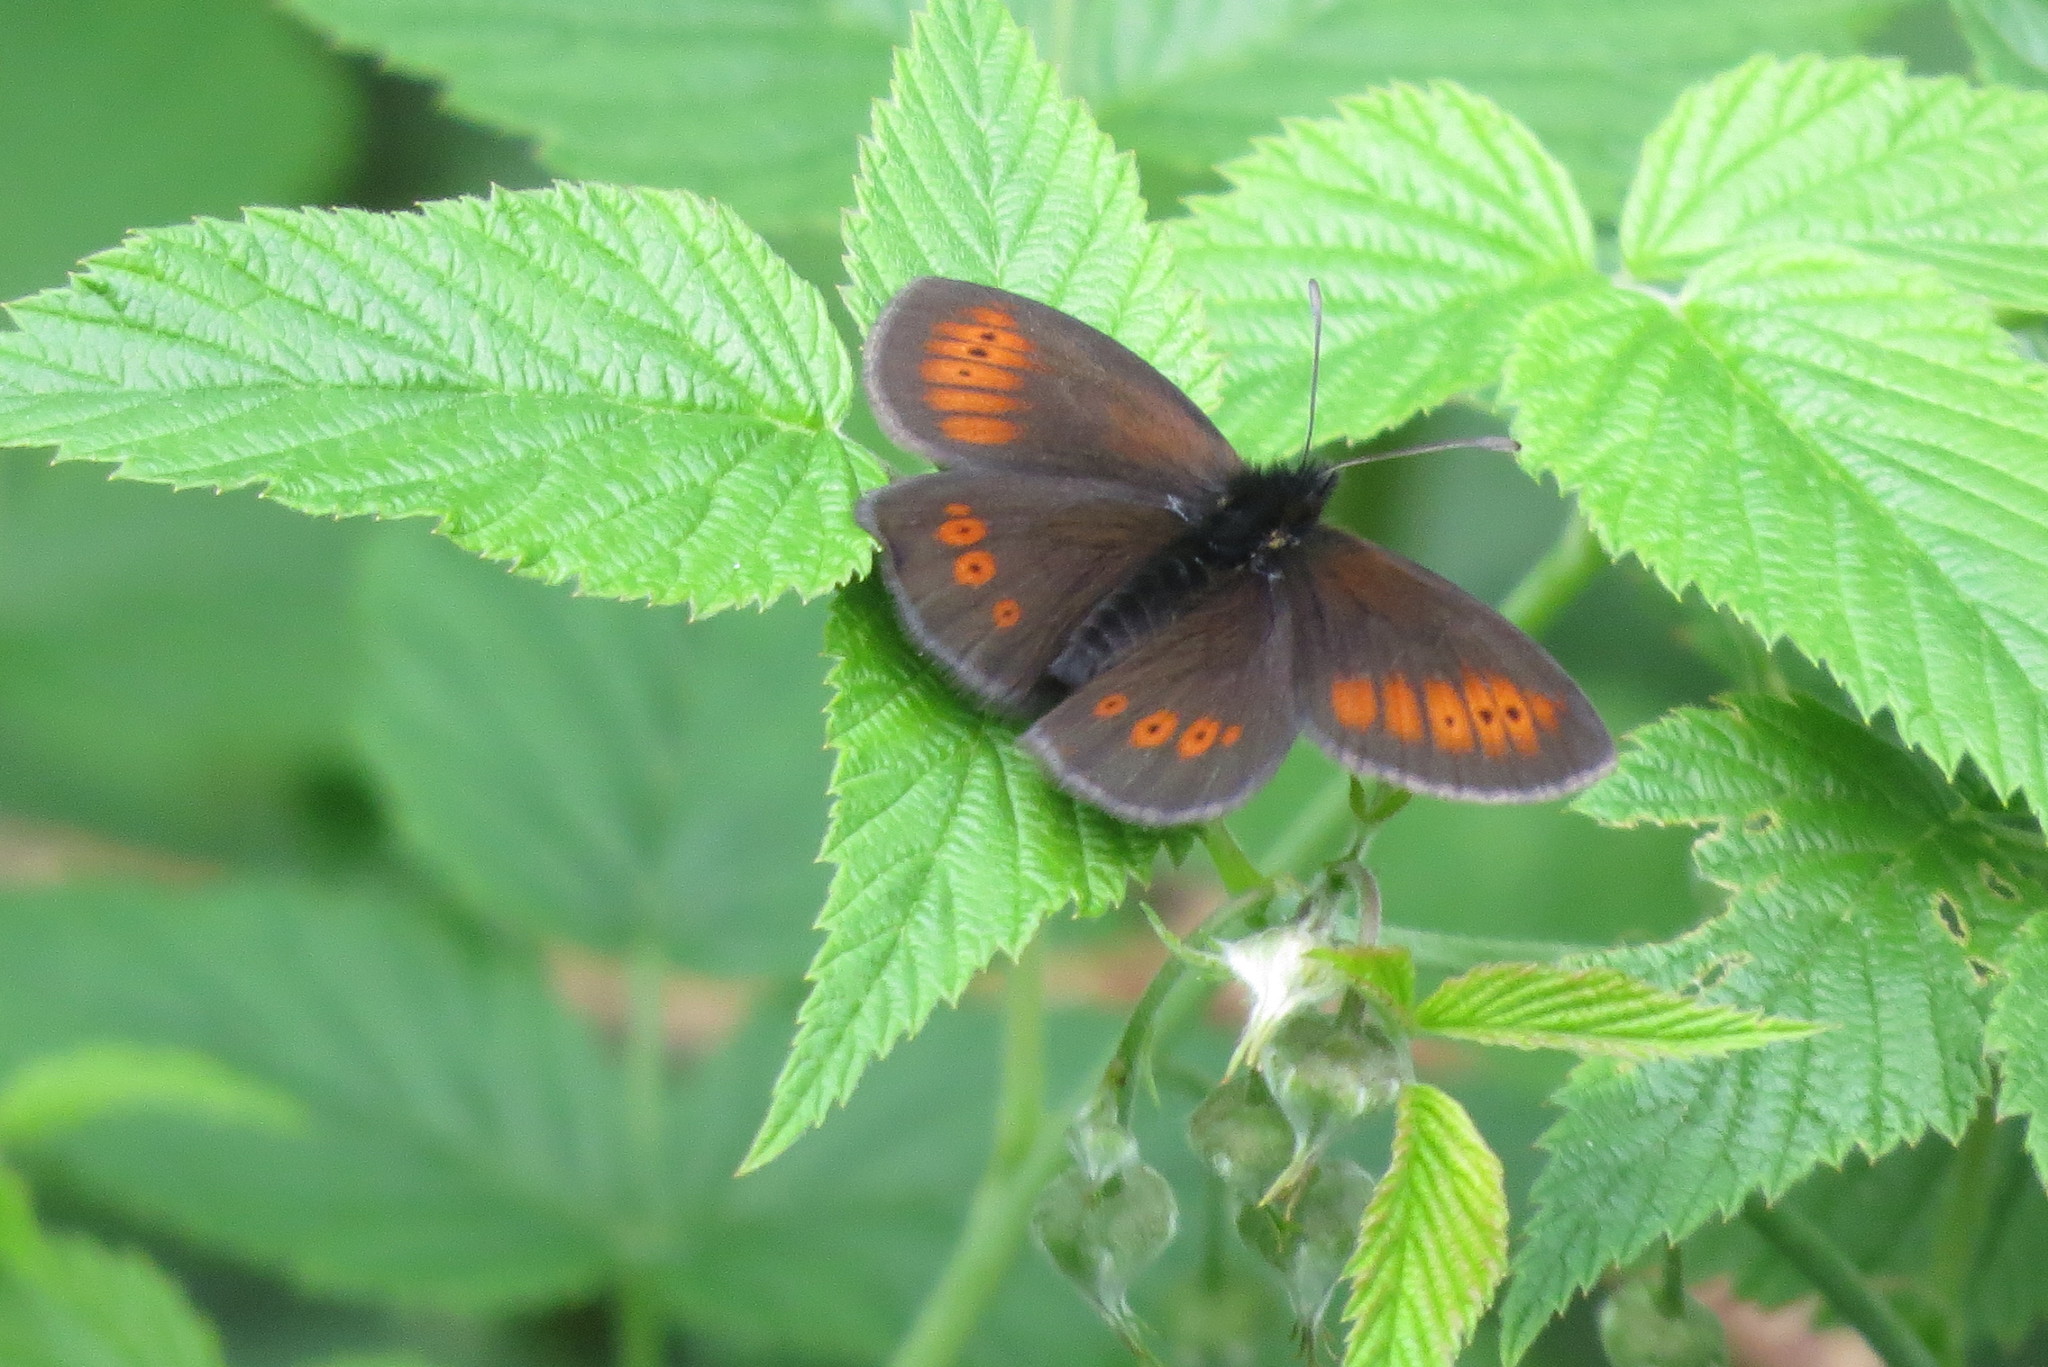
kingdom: Animalia
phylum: Arthropoda
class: Insecta
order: Lepidoptera
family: Nymphalidae
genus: Erebia
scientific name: Erebia melampus
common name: Lesser mountain ringlet
